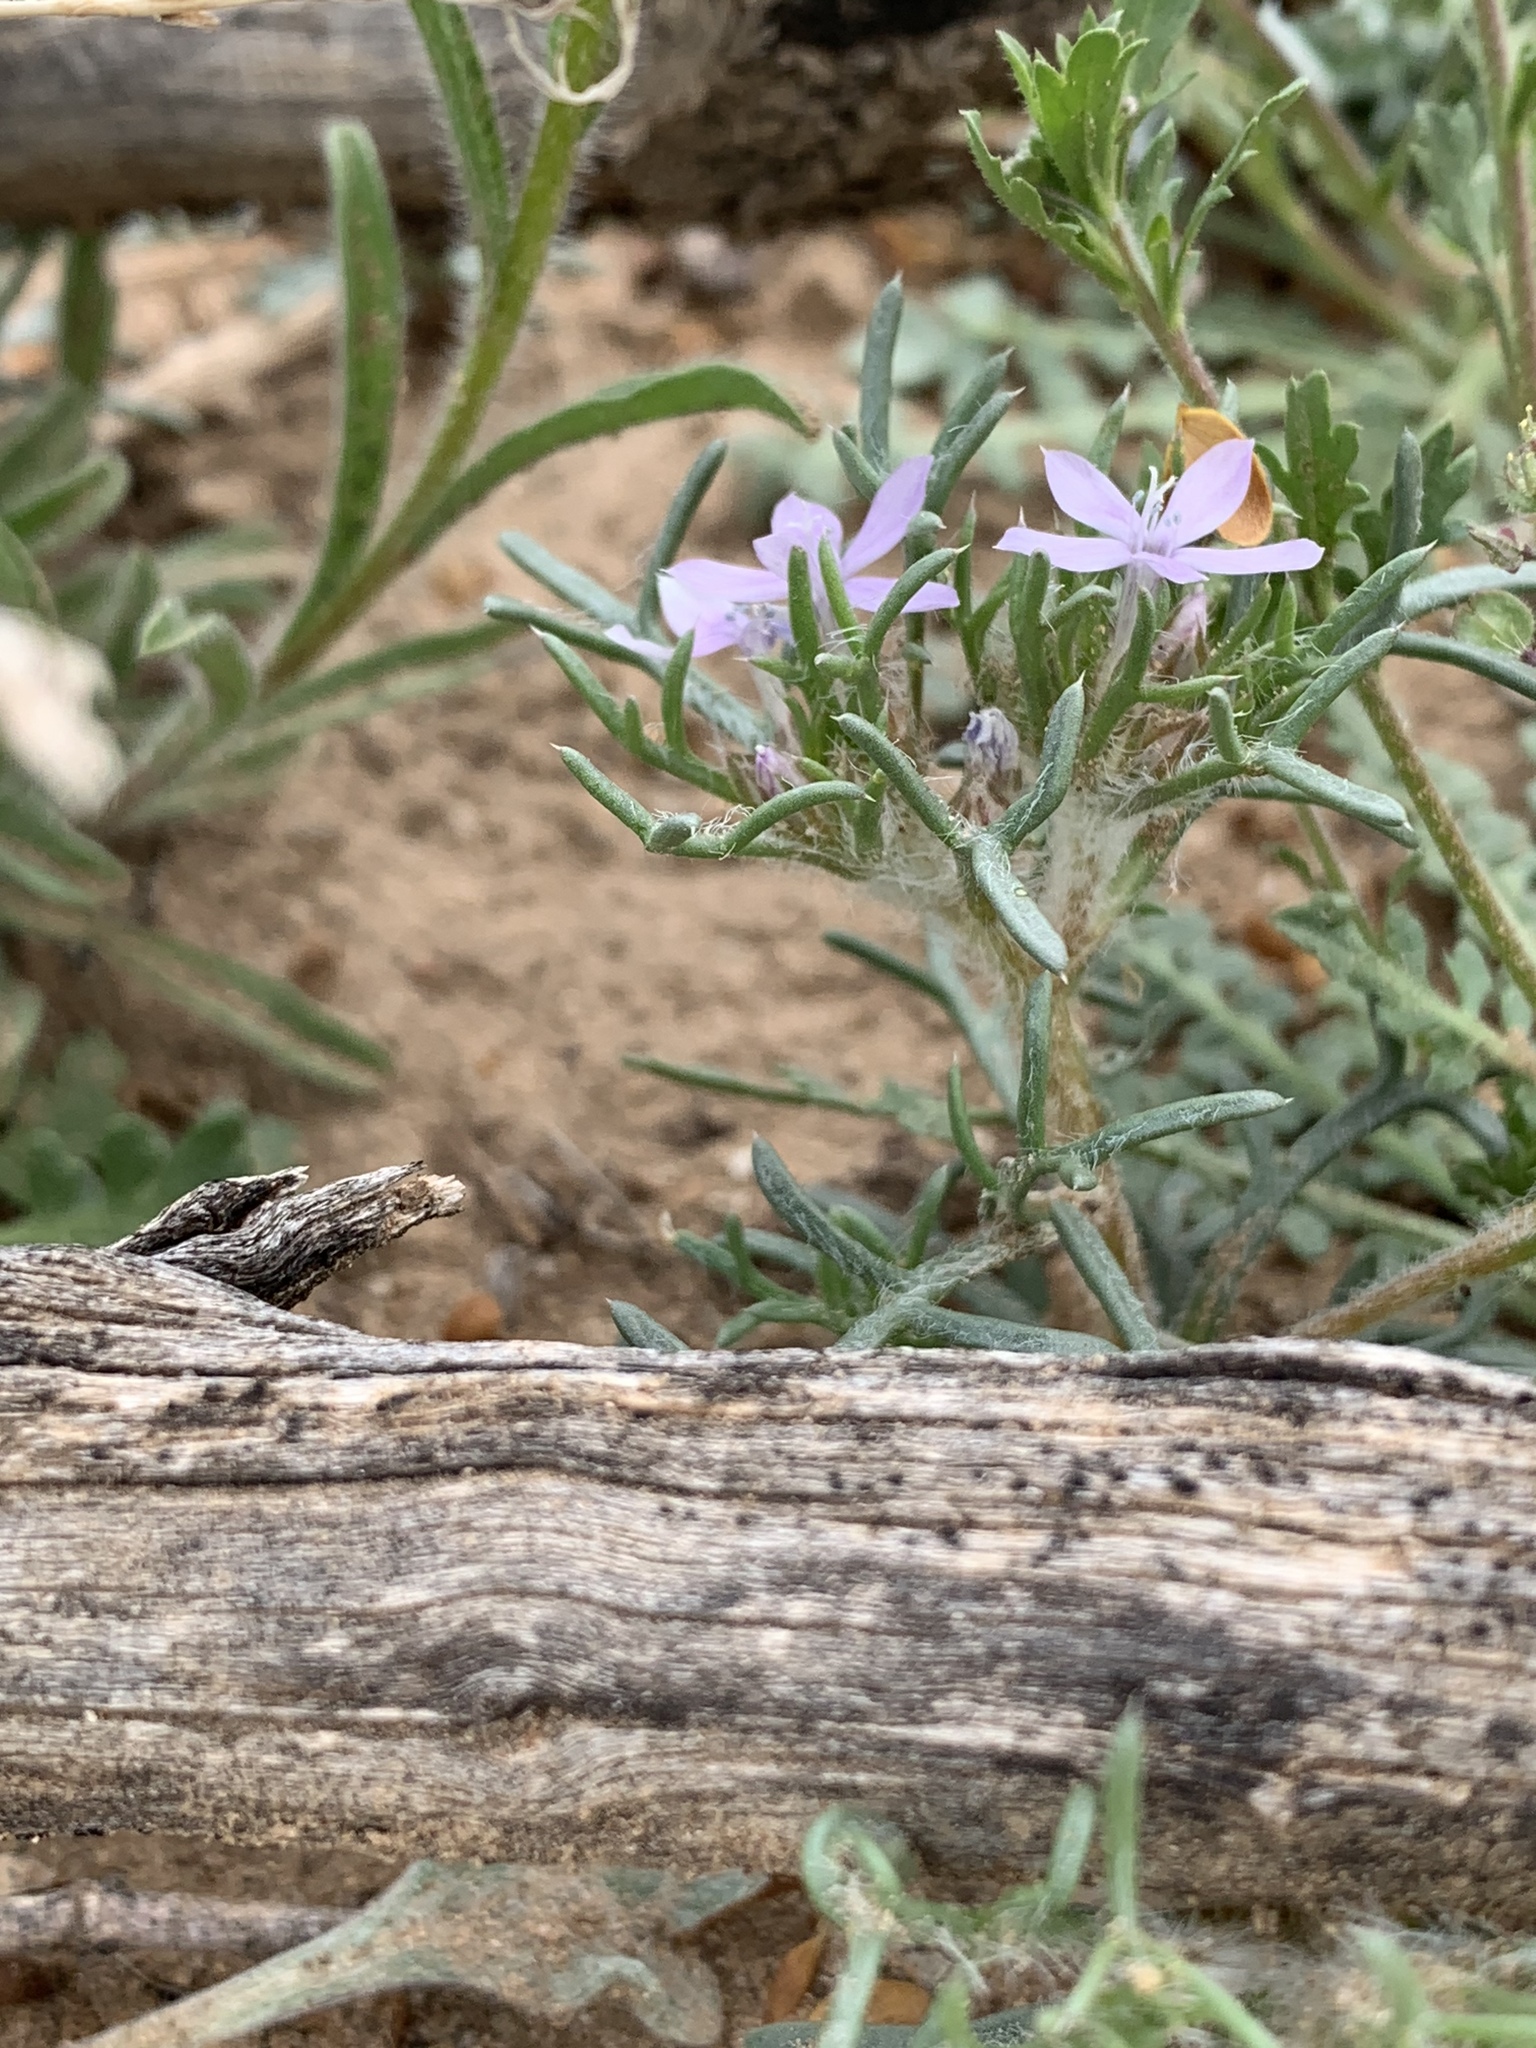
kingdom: Plantae
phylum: Tracheophyta
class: Magnoliopsida
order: Ericales
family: Polemoniaceae
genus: Ipomopsis
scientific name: Ipomopsis pumila
